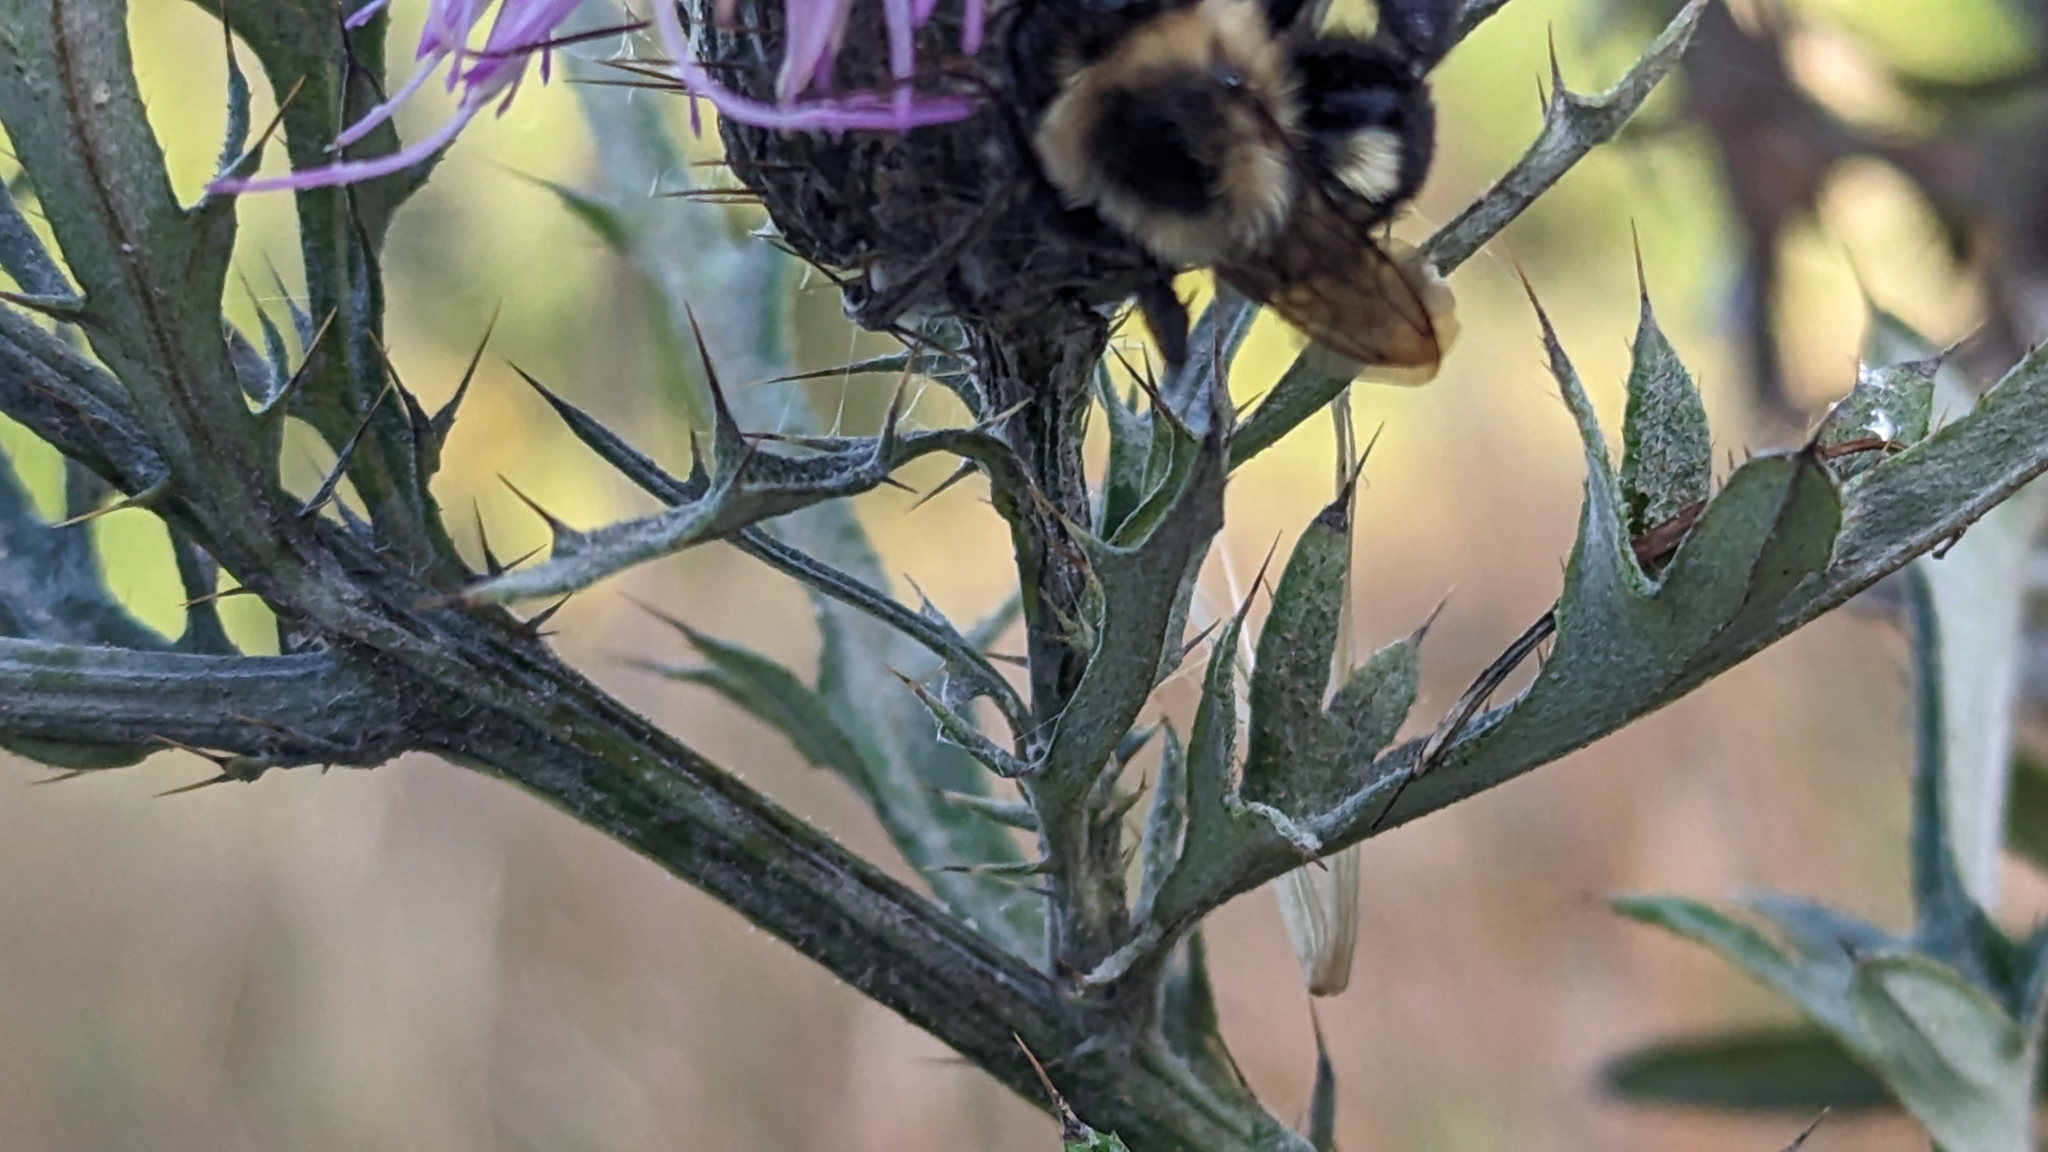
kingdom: Animalia
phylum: Arthropoda
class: Insecta
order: Hymenoptera
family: Apidae
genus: Bombus
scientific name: Bombus impatiens
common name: Common eastern bumble bee
